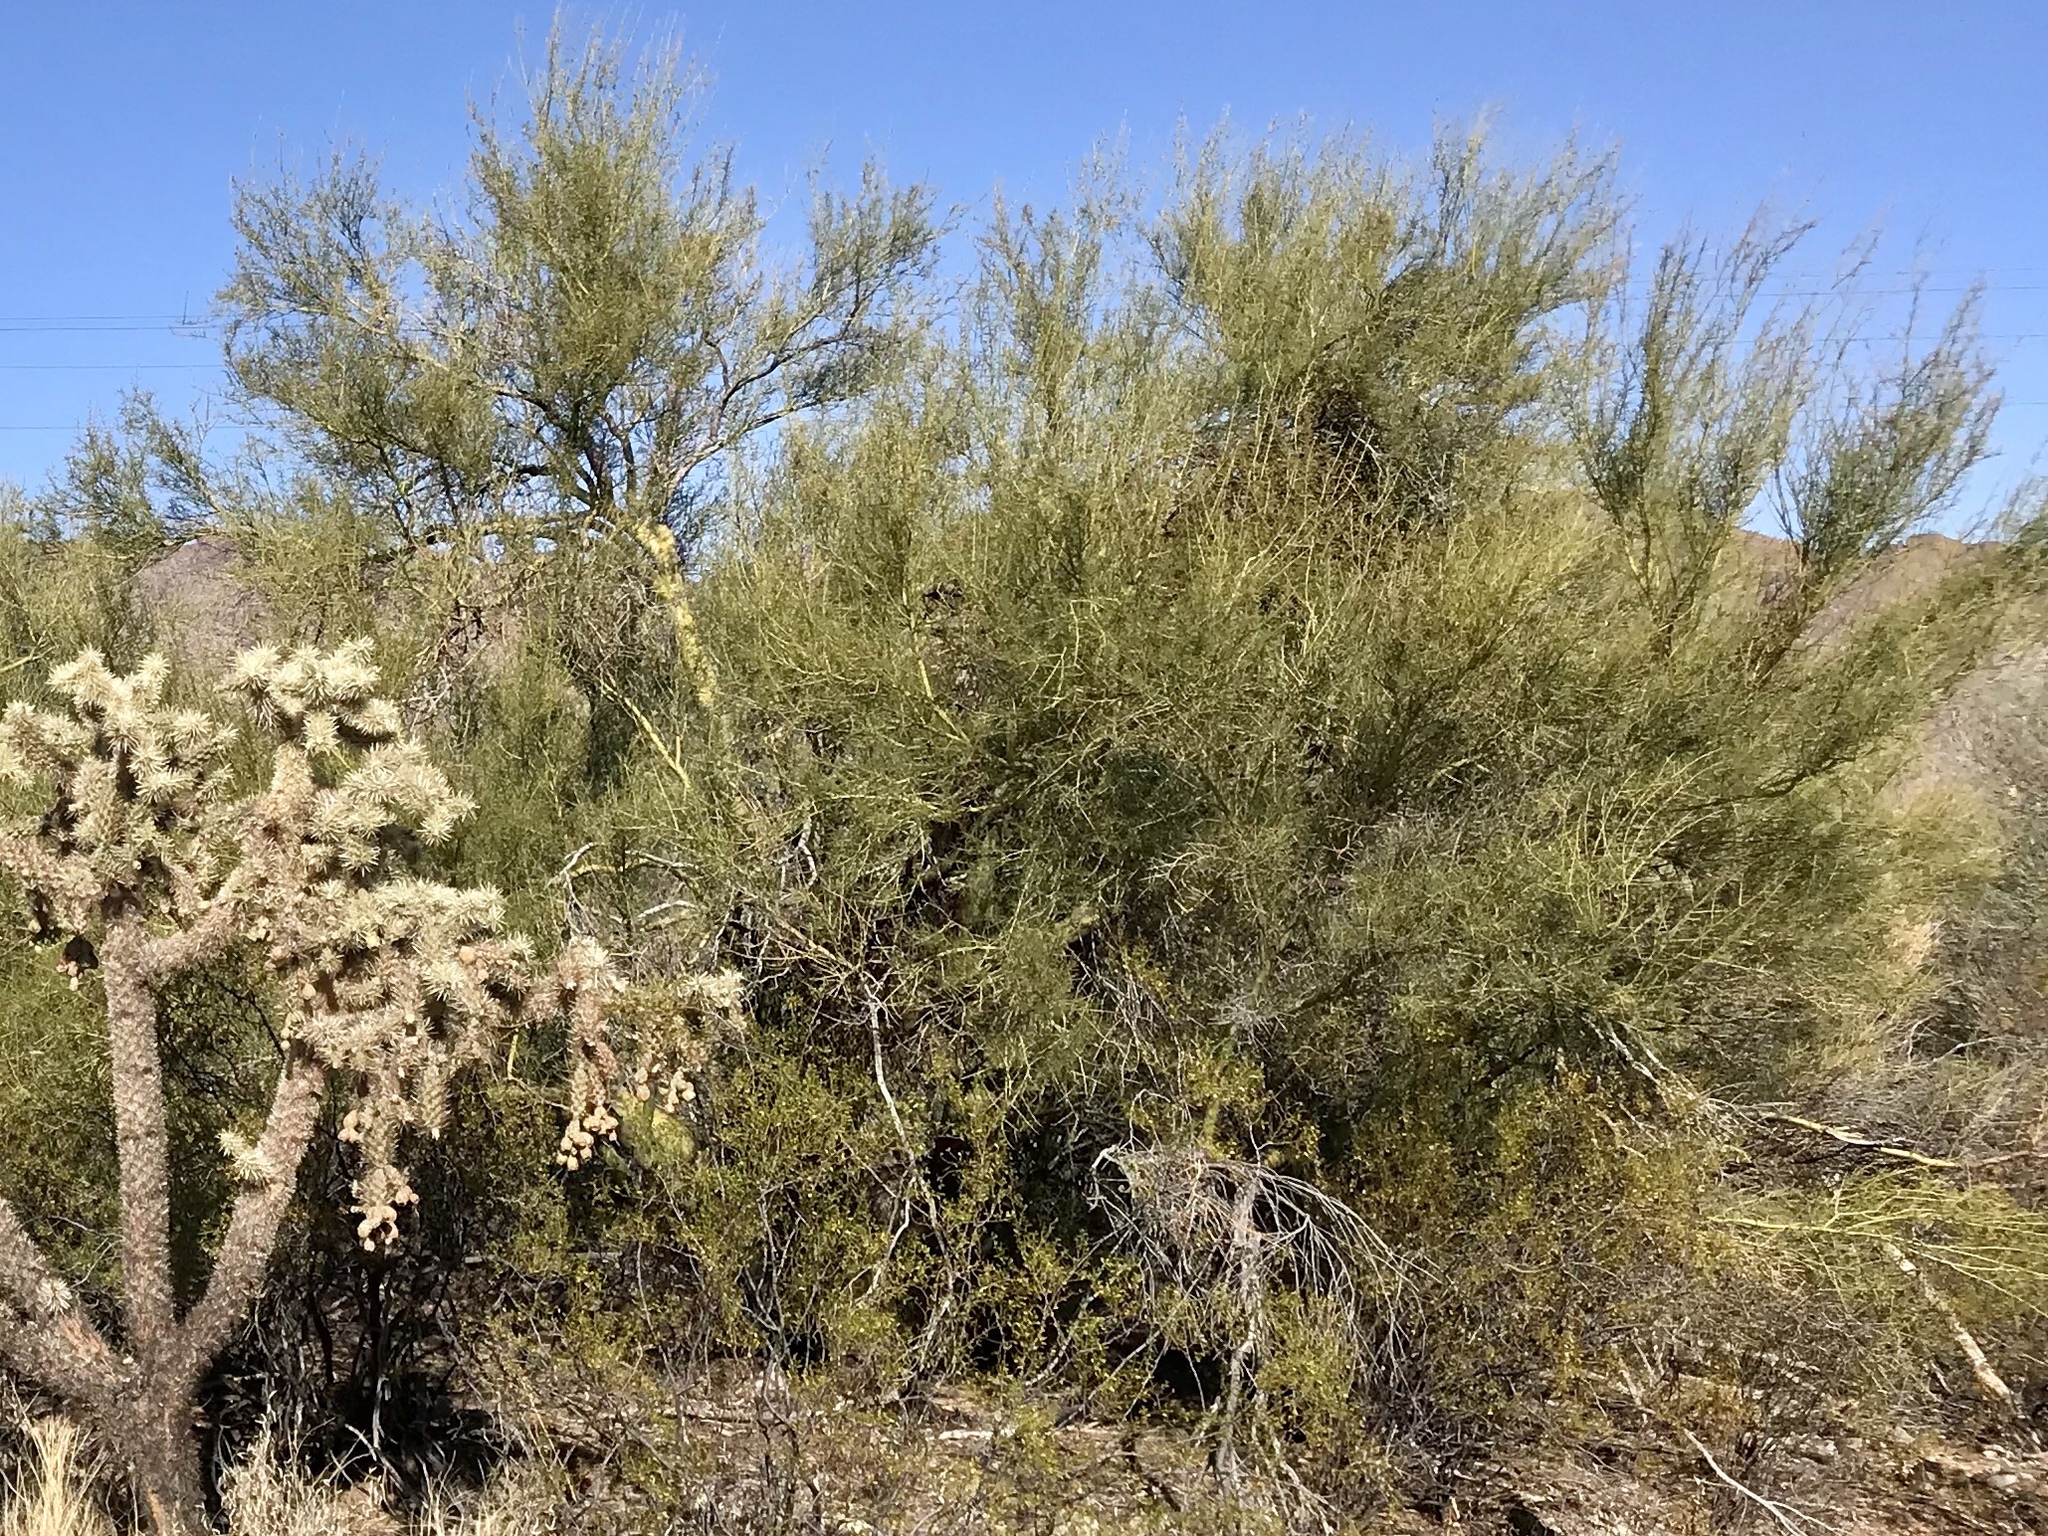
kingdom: Plantae
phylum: Tracheophyta
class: Magnoliopsida
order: Fabales
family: Fabaceae
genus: Parkinsonia
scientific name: Parkinsonia microphylla
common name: Yellow paloverde
